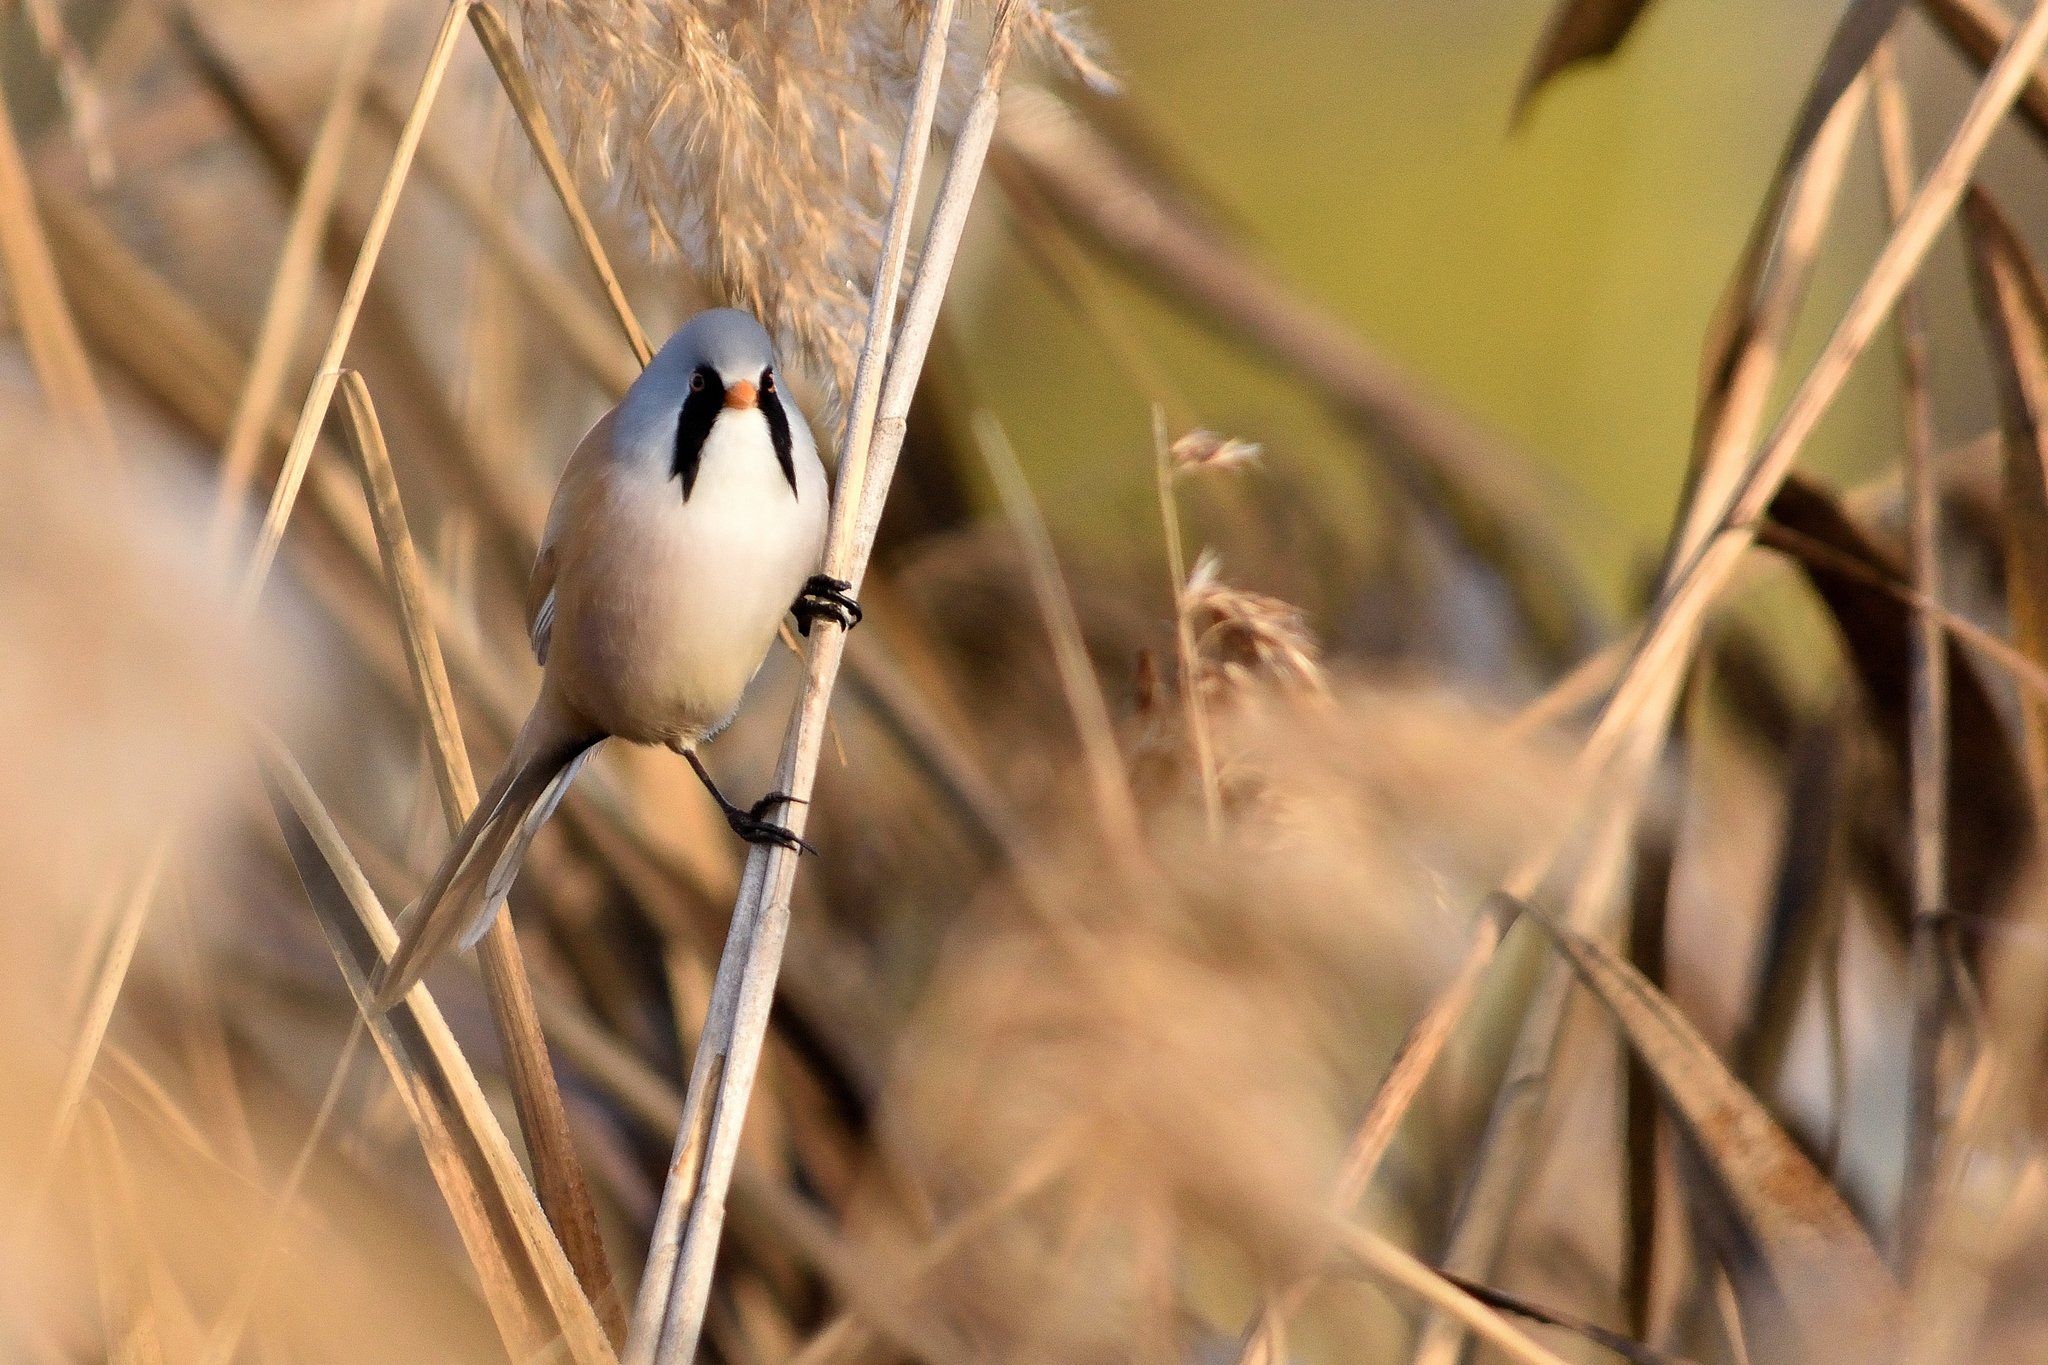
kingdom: Animalia
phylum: Chordata
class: Aves
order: Passeriformes
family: Panuridae
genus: Panurus
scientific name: Panurus biarmicus
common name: Bearded reedling
